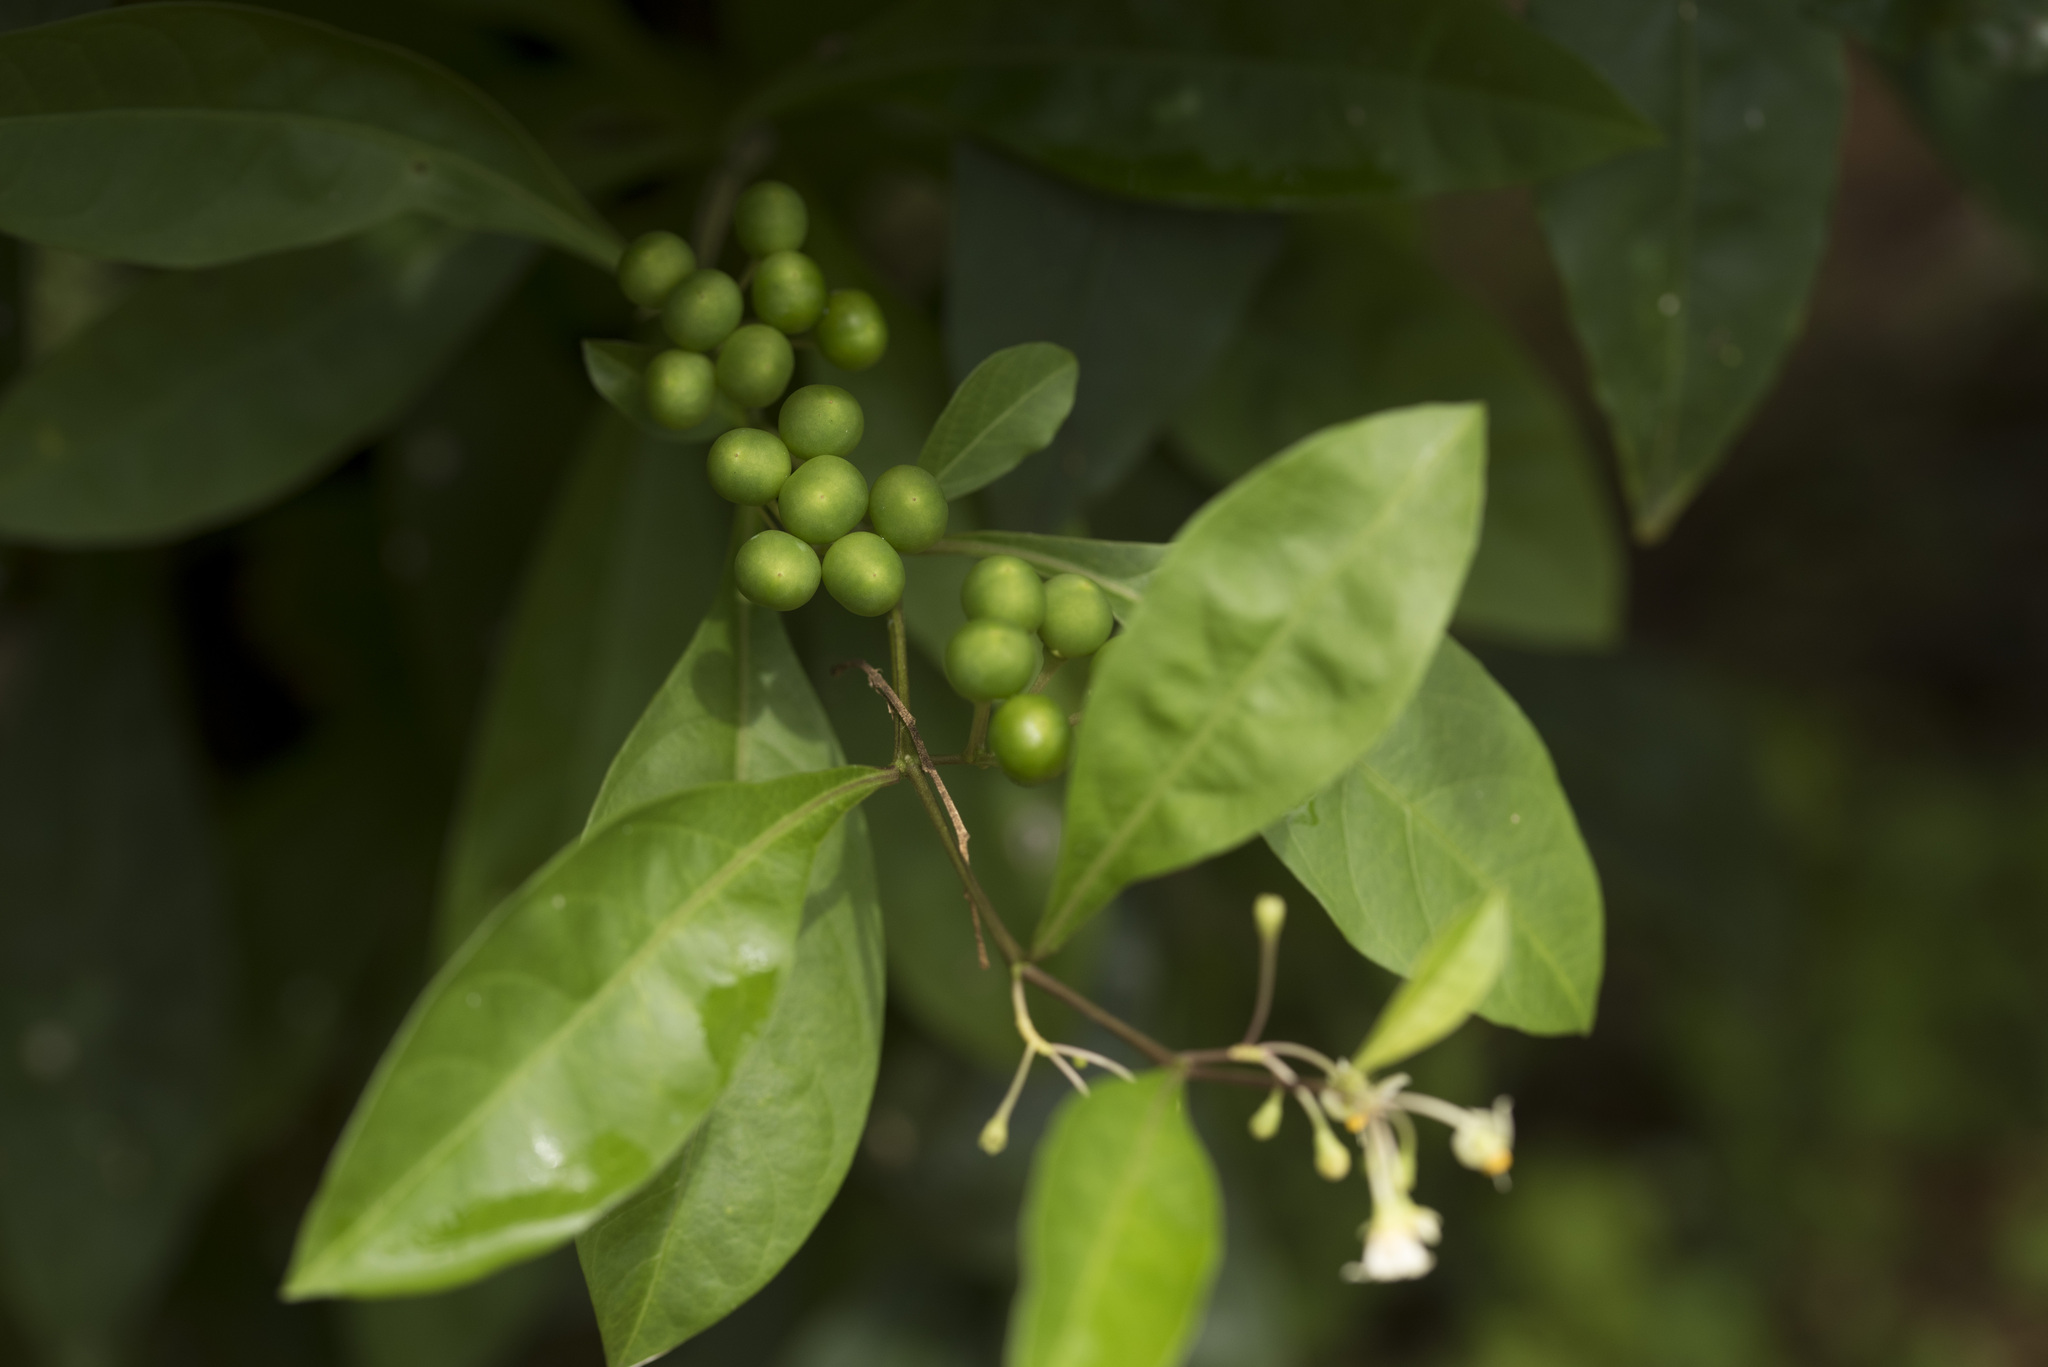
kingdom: Plantae
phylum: Tracheophyta
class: Magnoliopsida
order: Solanales
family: Solanaceae
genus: Solanum
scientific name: Solanum diphyllum
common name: Twoleaf nightshade
